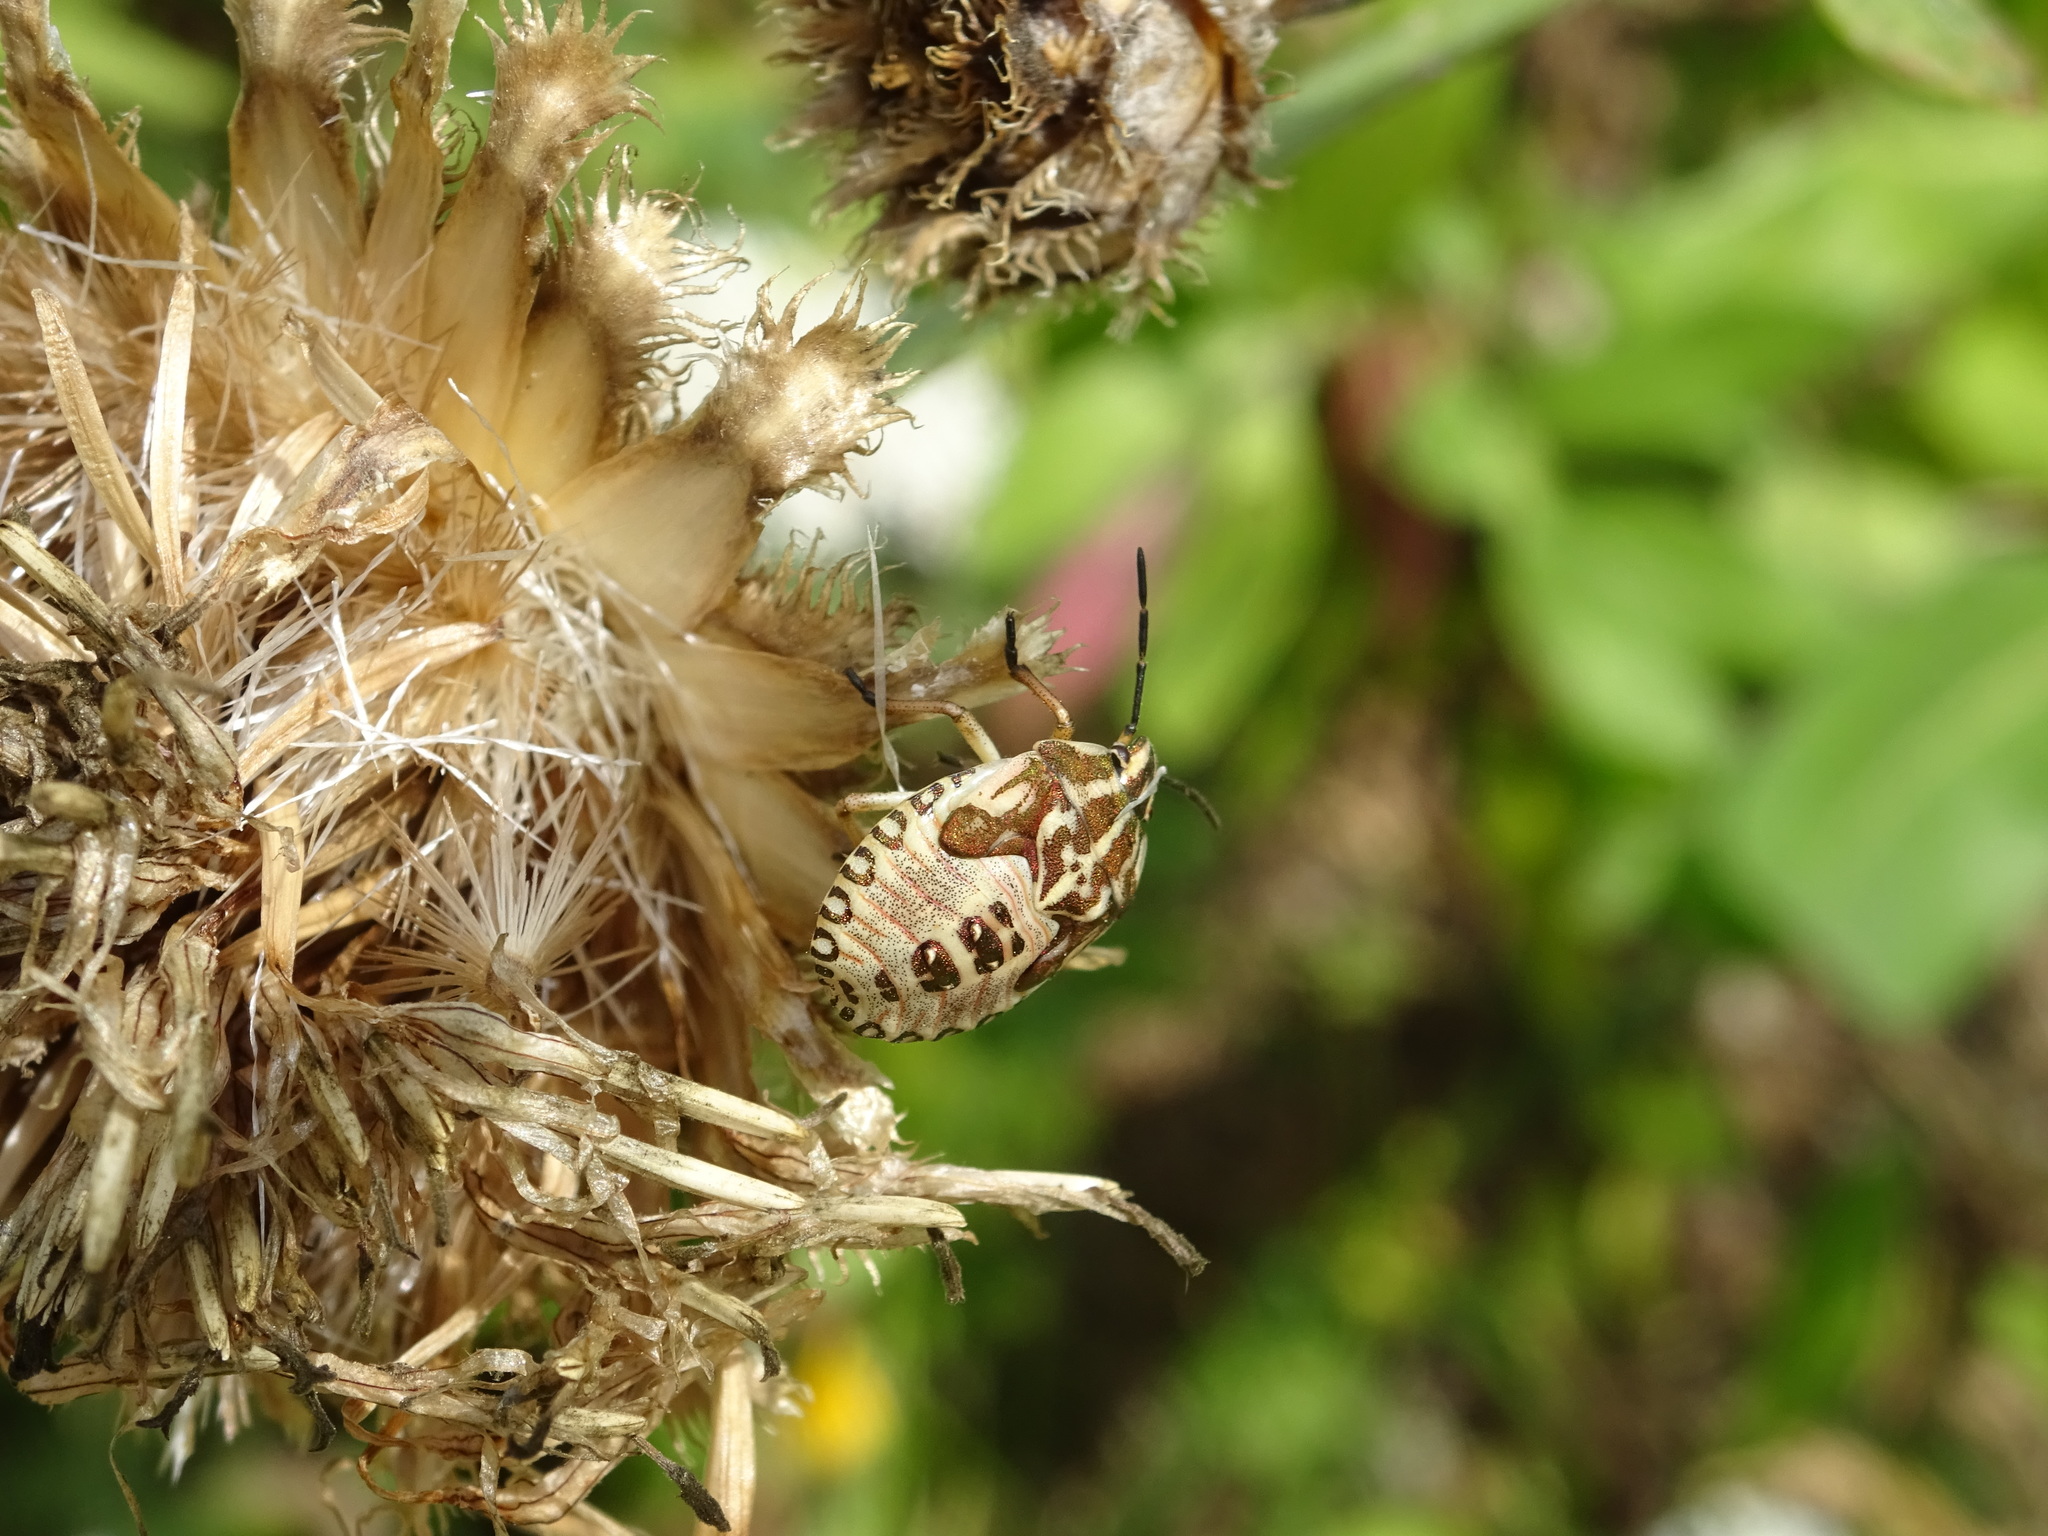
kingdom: Animalia
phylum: Arthropoda
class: Insecta
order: Hemiptera
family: Pentatomidae
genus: Carpocoris
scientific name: Carpocoris purpureipennis
